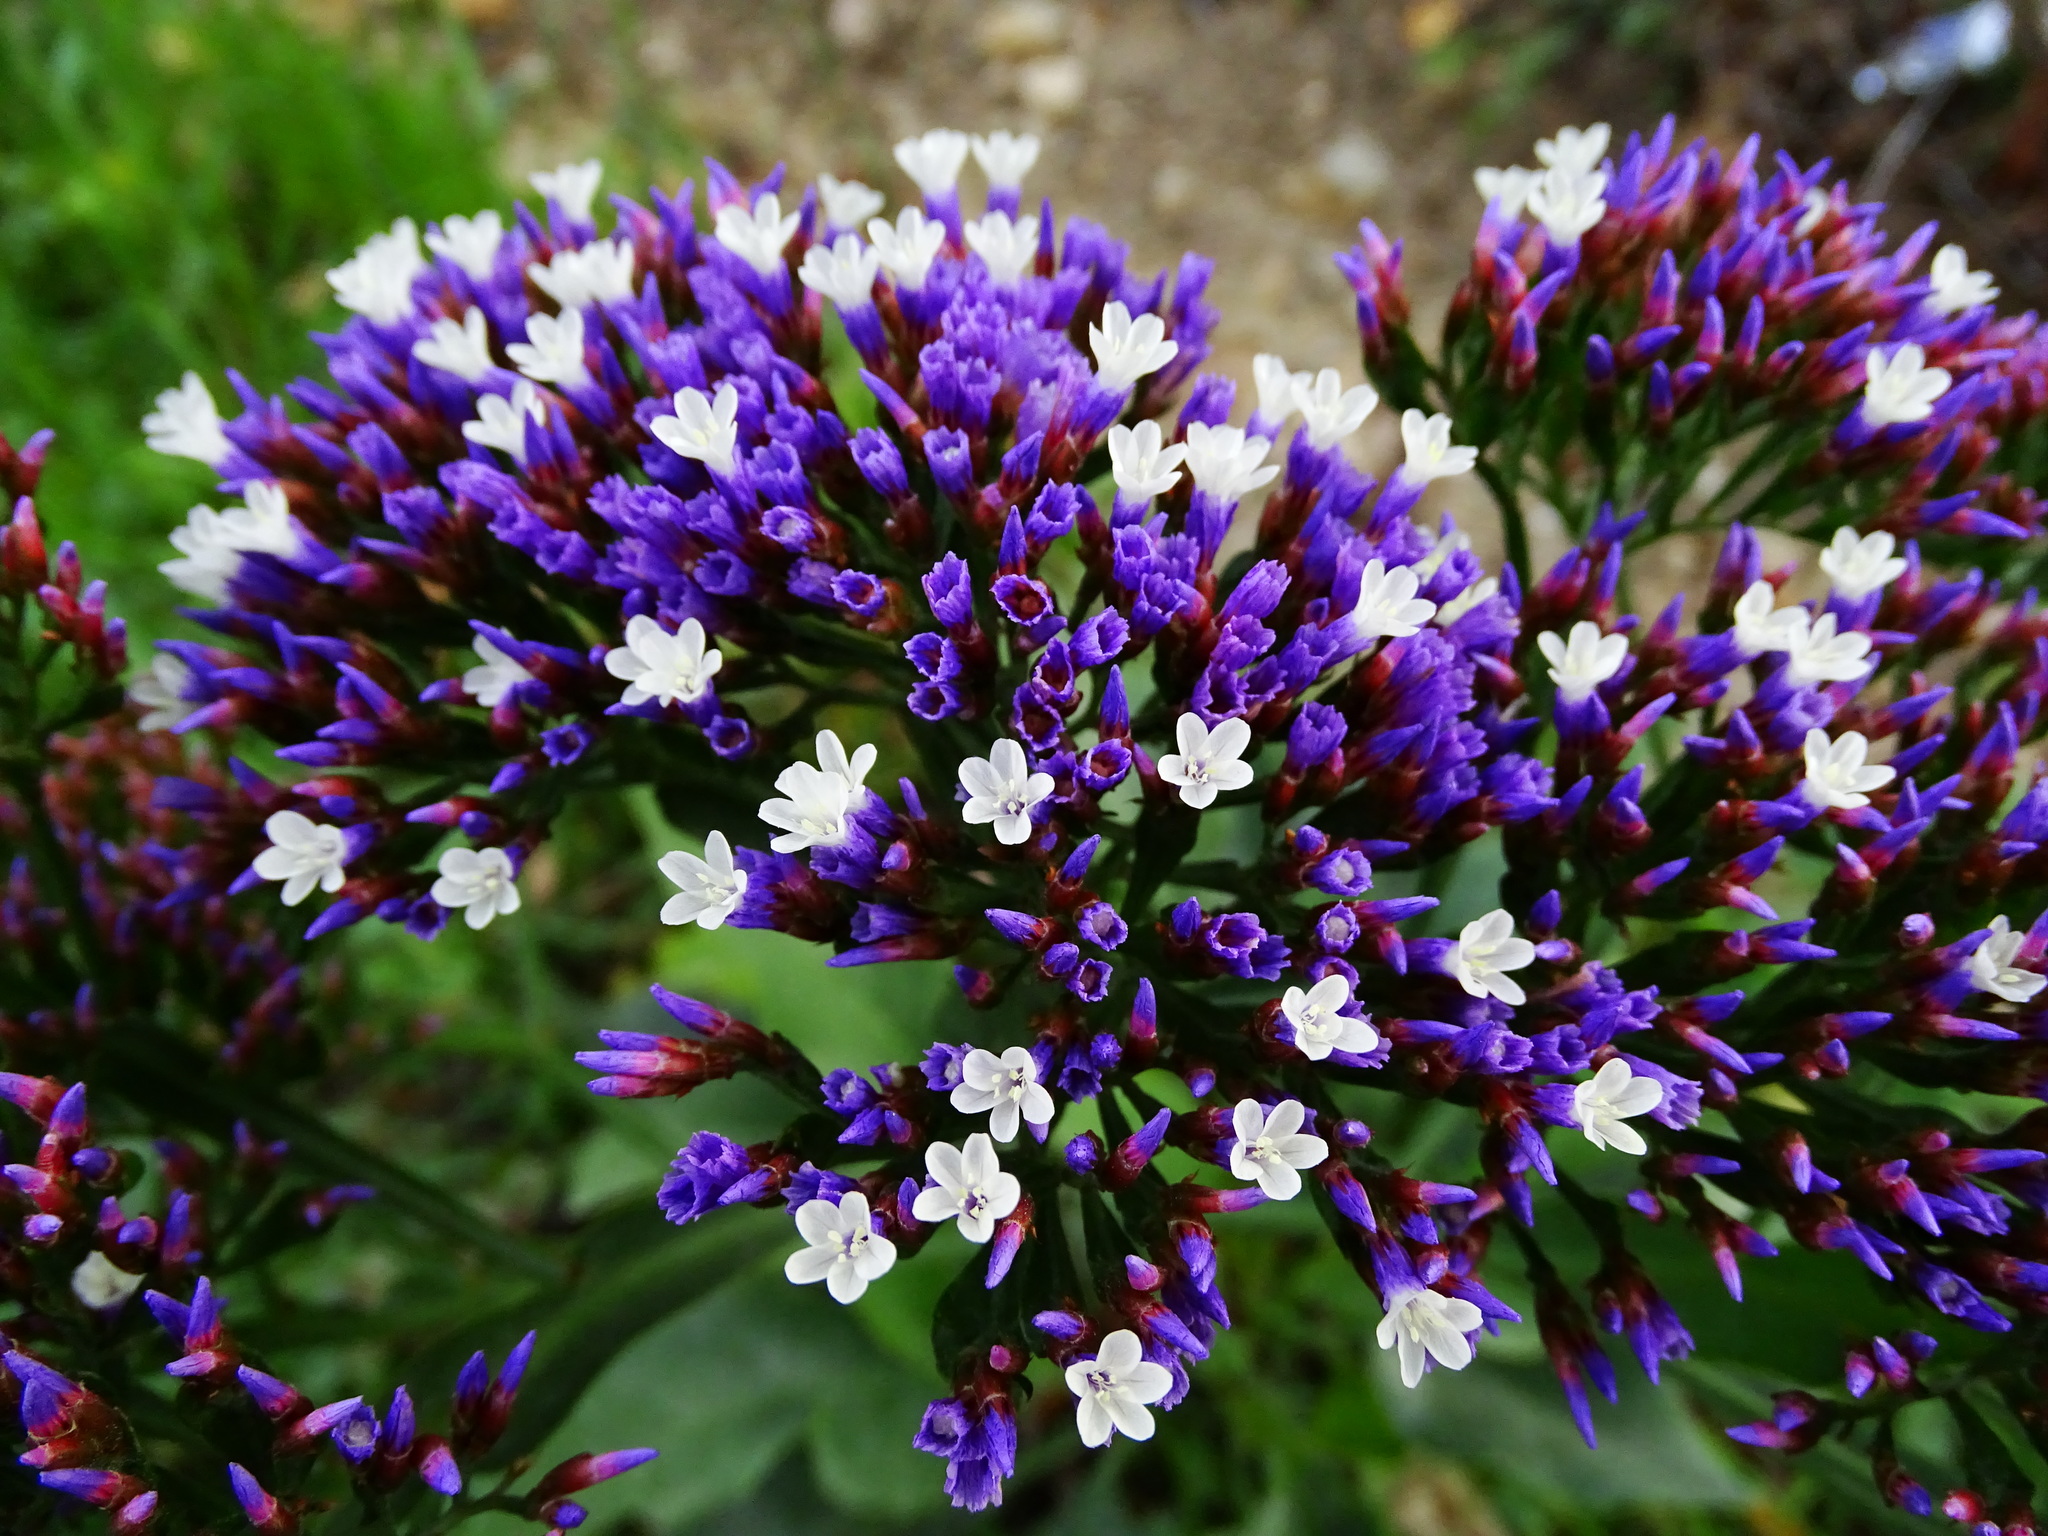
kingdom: Plantae
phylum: Tracheophyta
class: Magnoliopsida
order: Caryophyllales
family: Plumbaginaceae
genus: Limonium
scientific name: Limonium perezii
